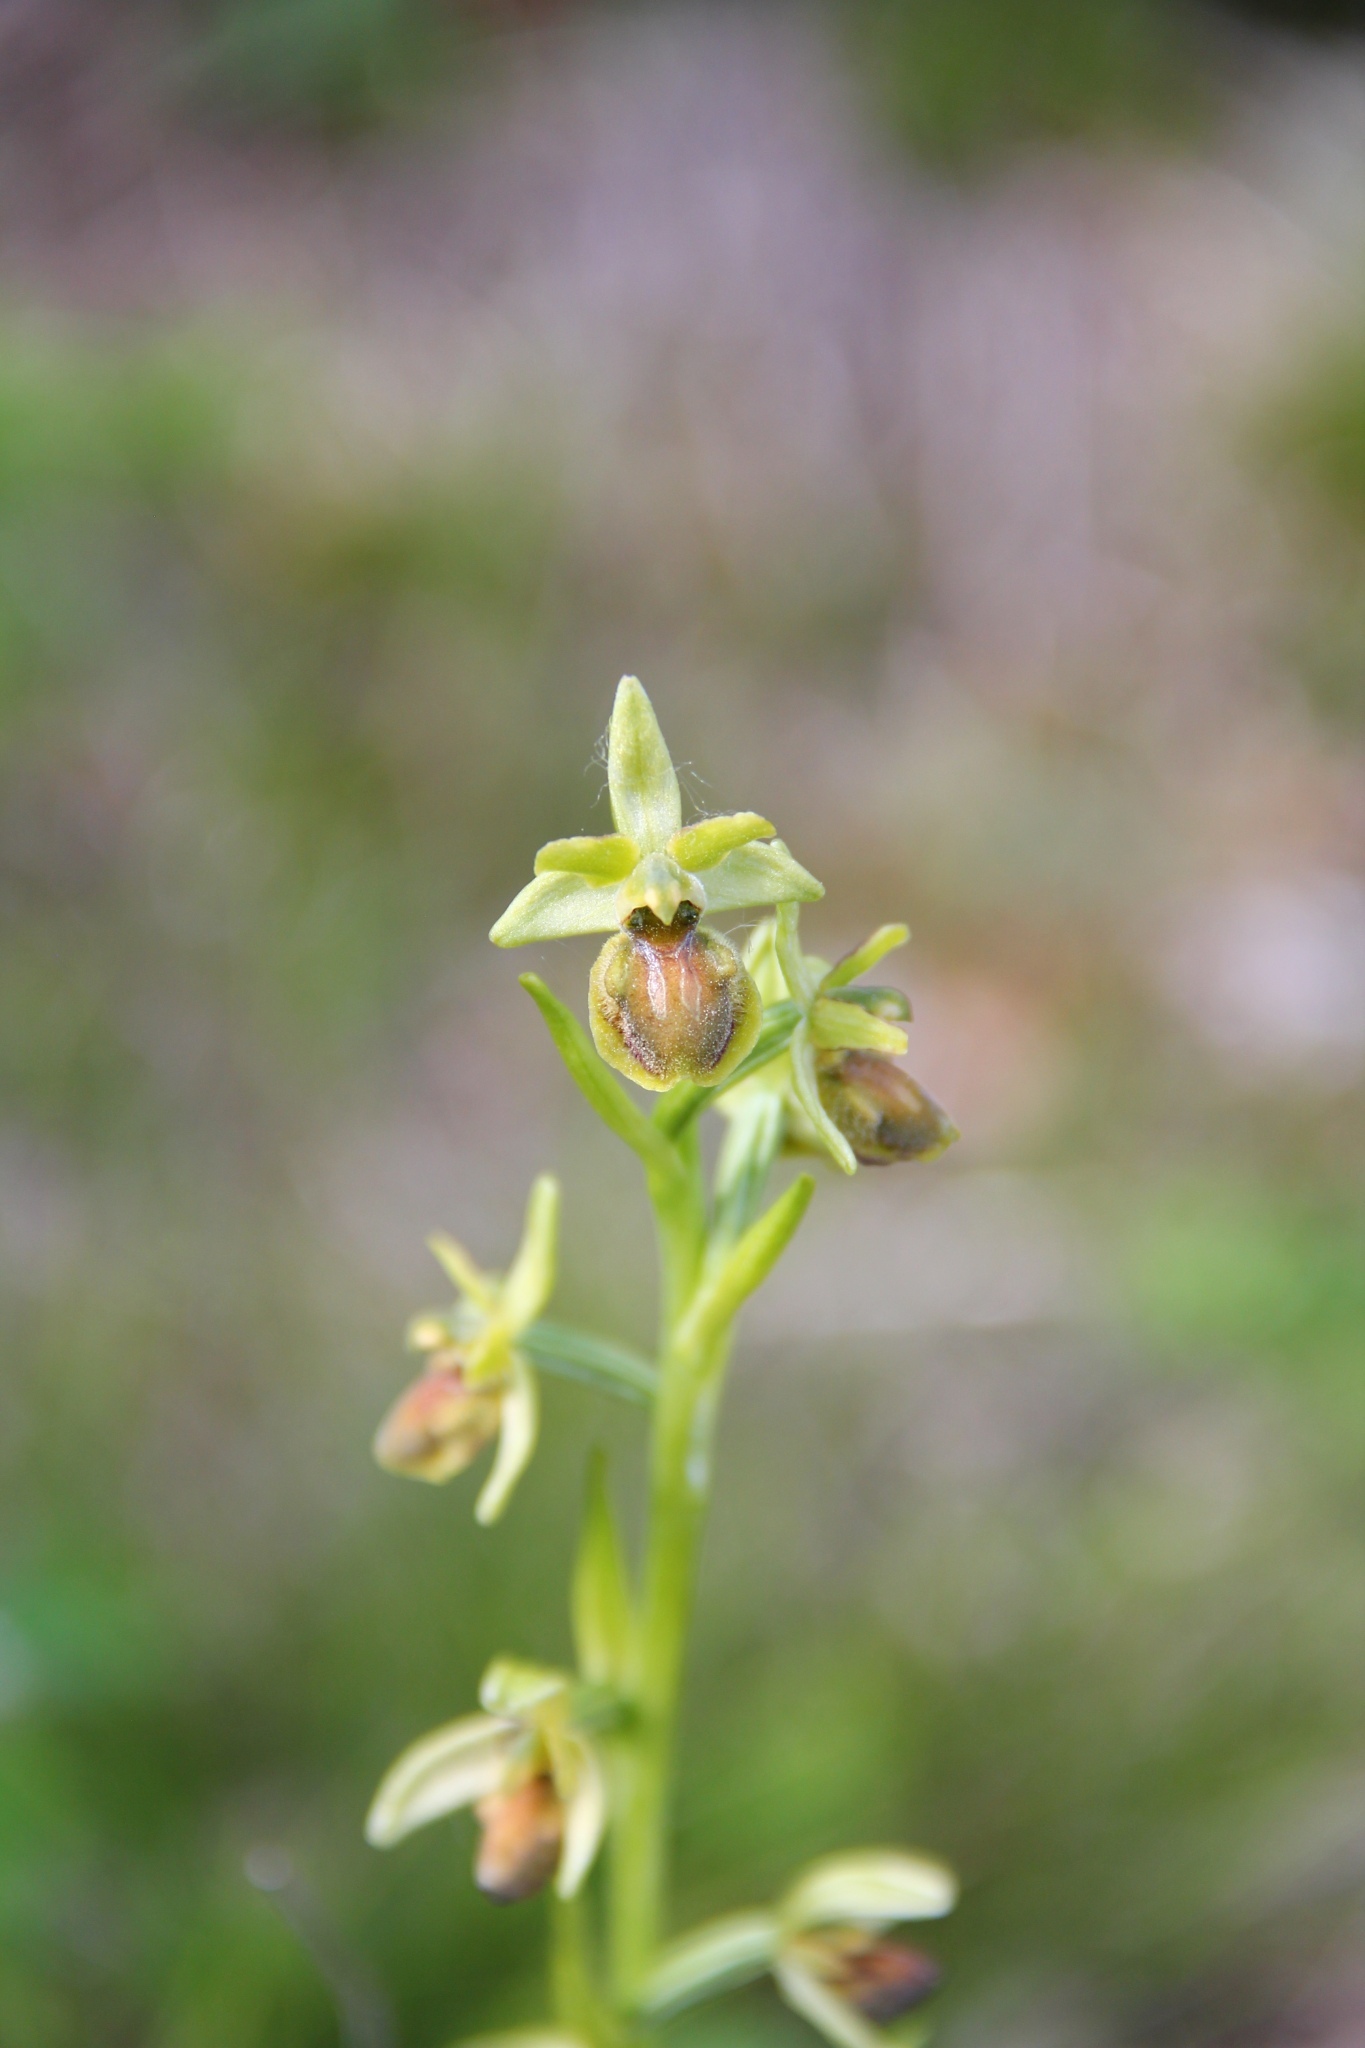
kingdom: Plantae
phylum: Tracheophyta
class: Liliopsida
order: Asparagales
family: Orchidaceae
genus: Ophrys
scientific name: Ophrys sphegodes
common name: Early spider-orchid
